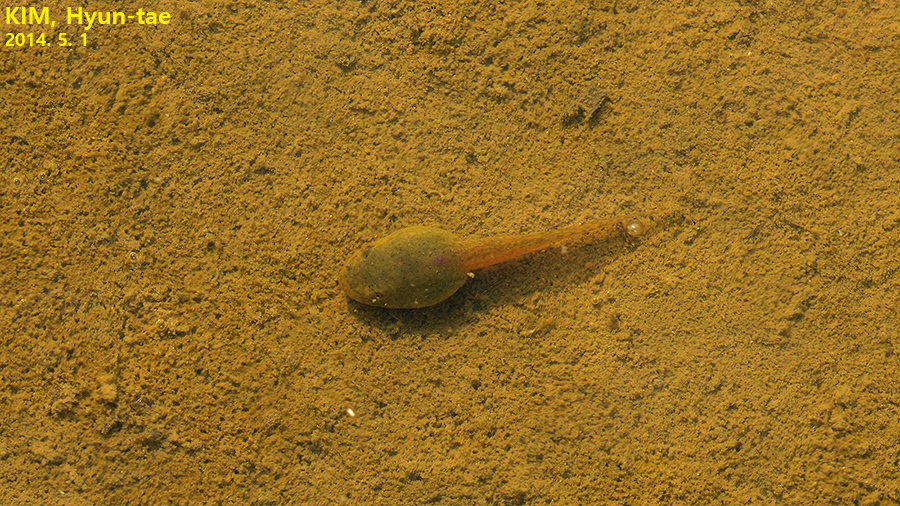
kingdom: Animalia
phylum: Chordata
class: Amphibia
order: Anura
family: Ranidae
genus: Lithobates
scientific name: Lithobates catesbeianus
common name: American bullfrog
